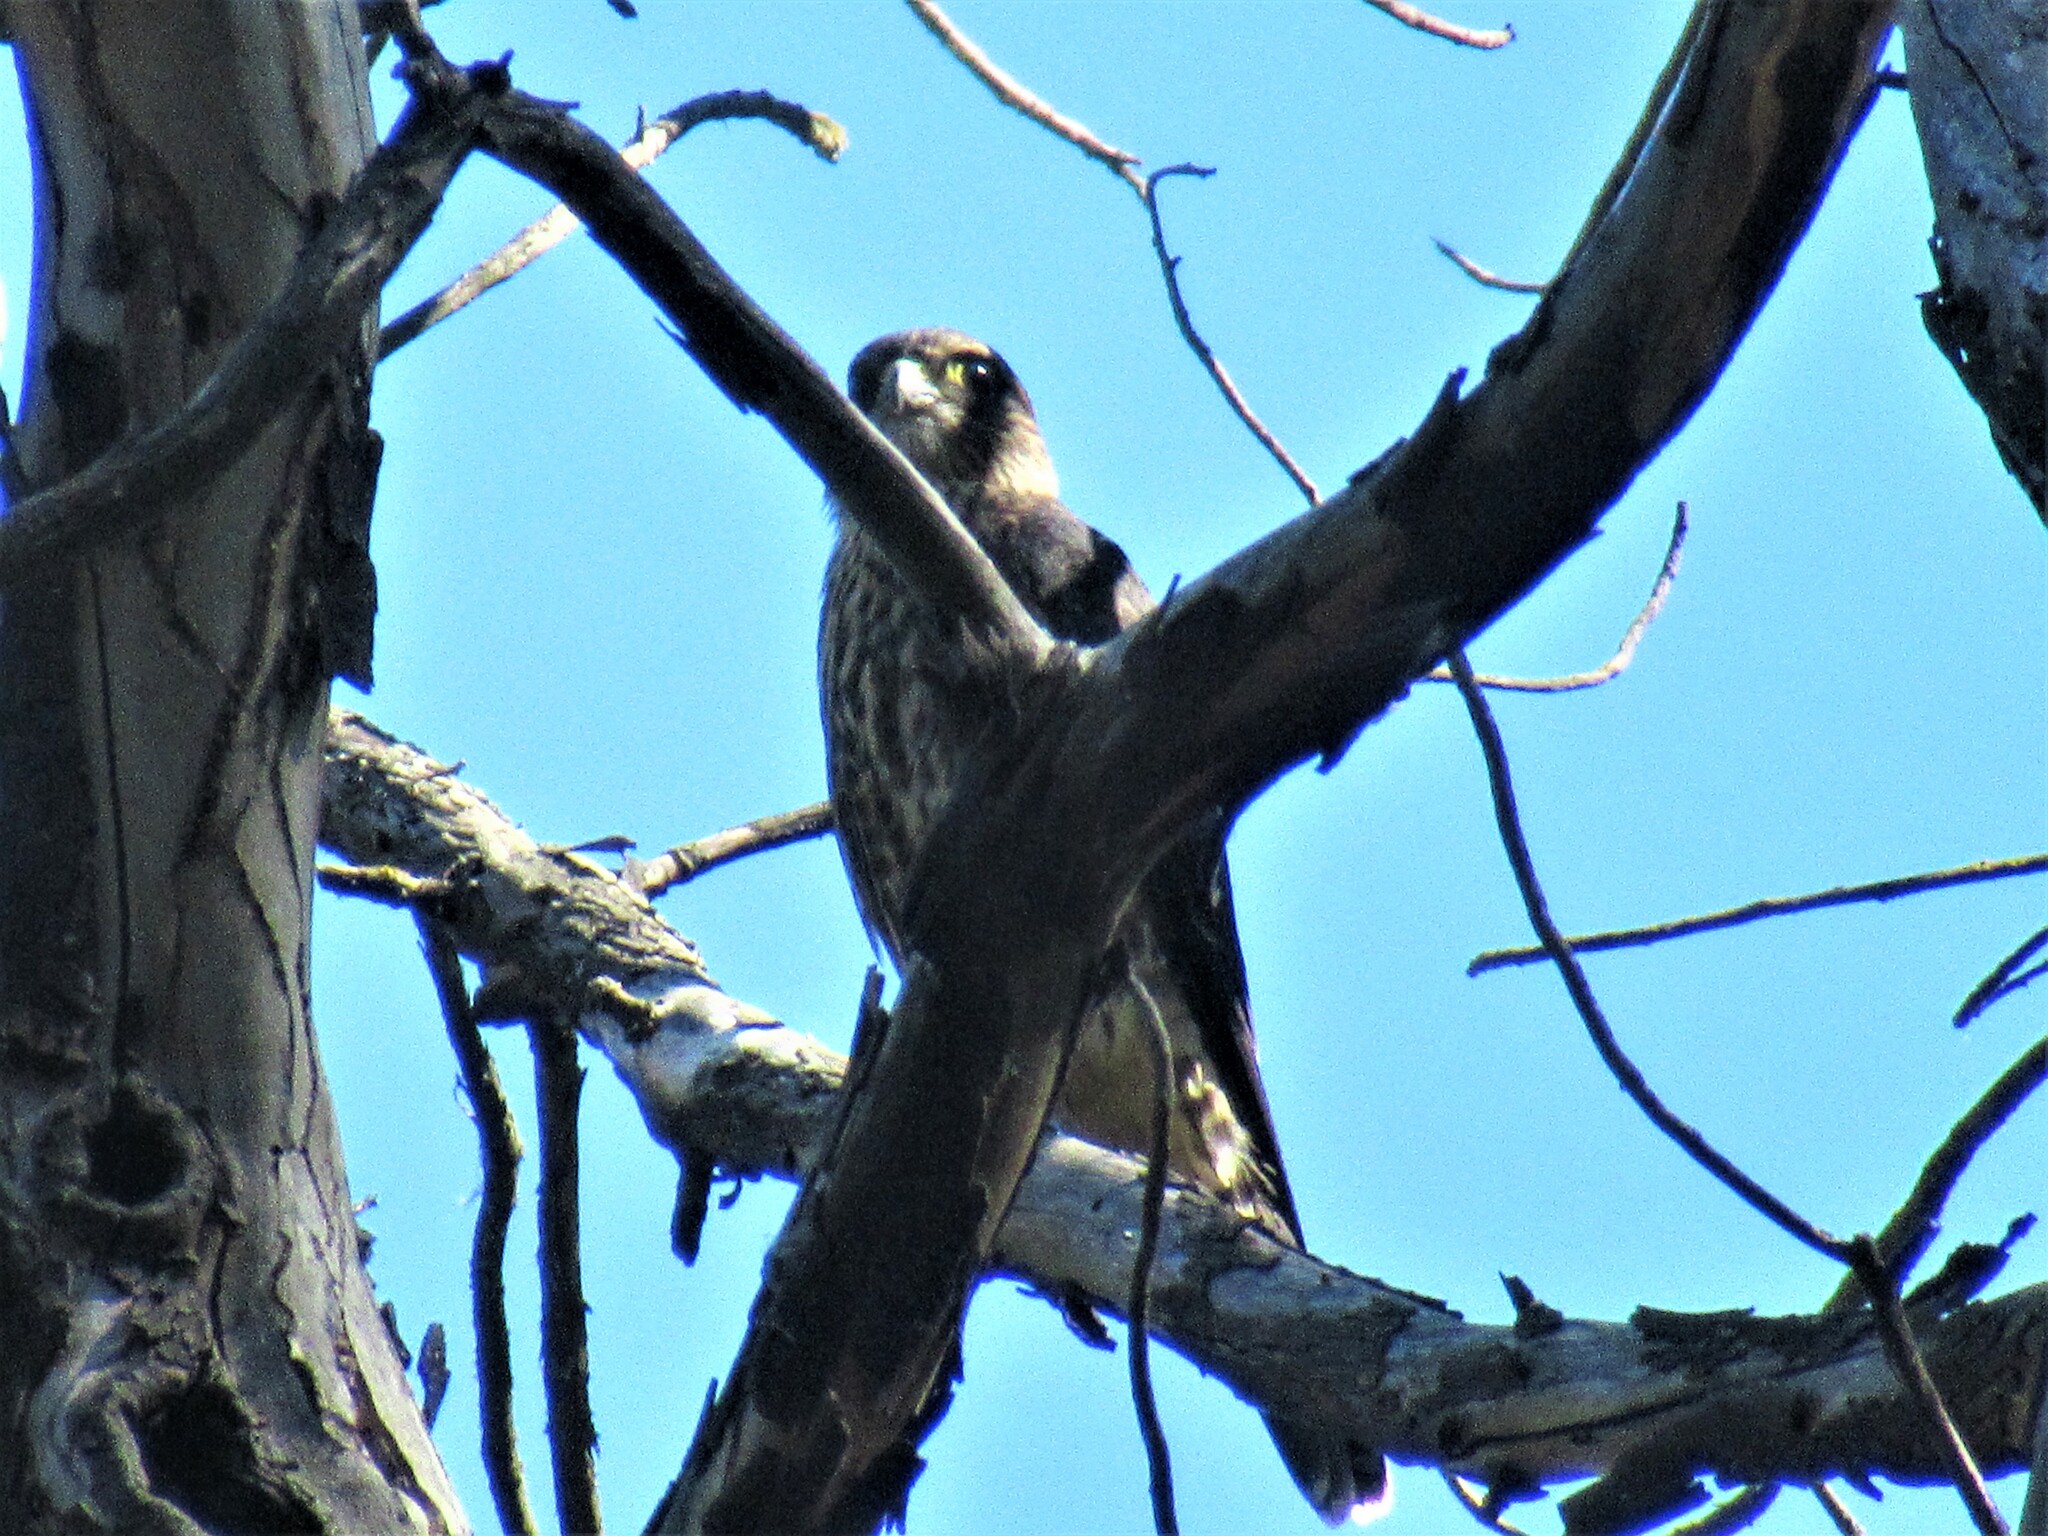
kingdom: Animalia
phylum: Chordata
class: Aves
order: Falconiformes
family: Falconidae
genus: Falco
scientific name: Falco columbarius
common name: Merlin
